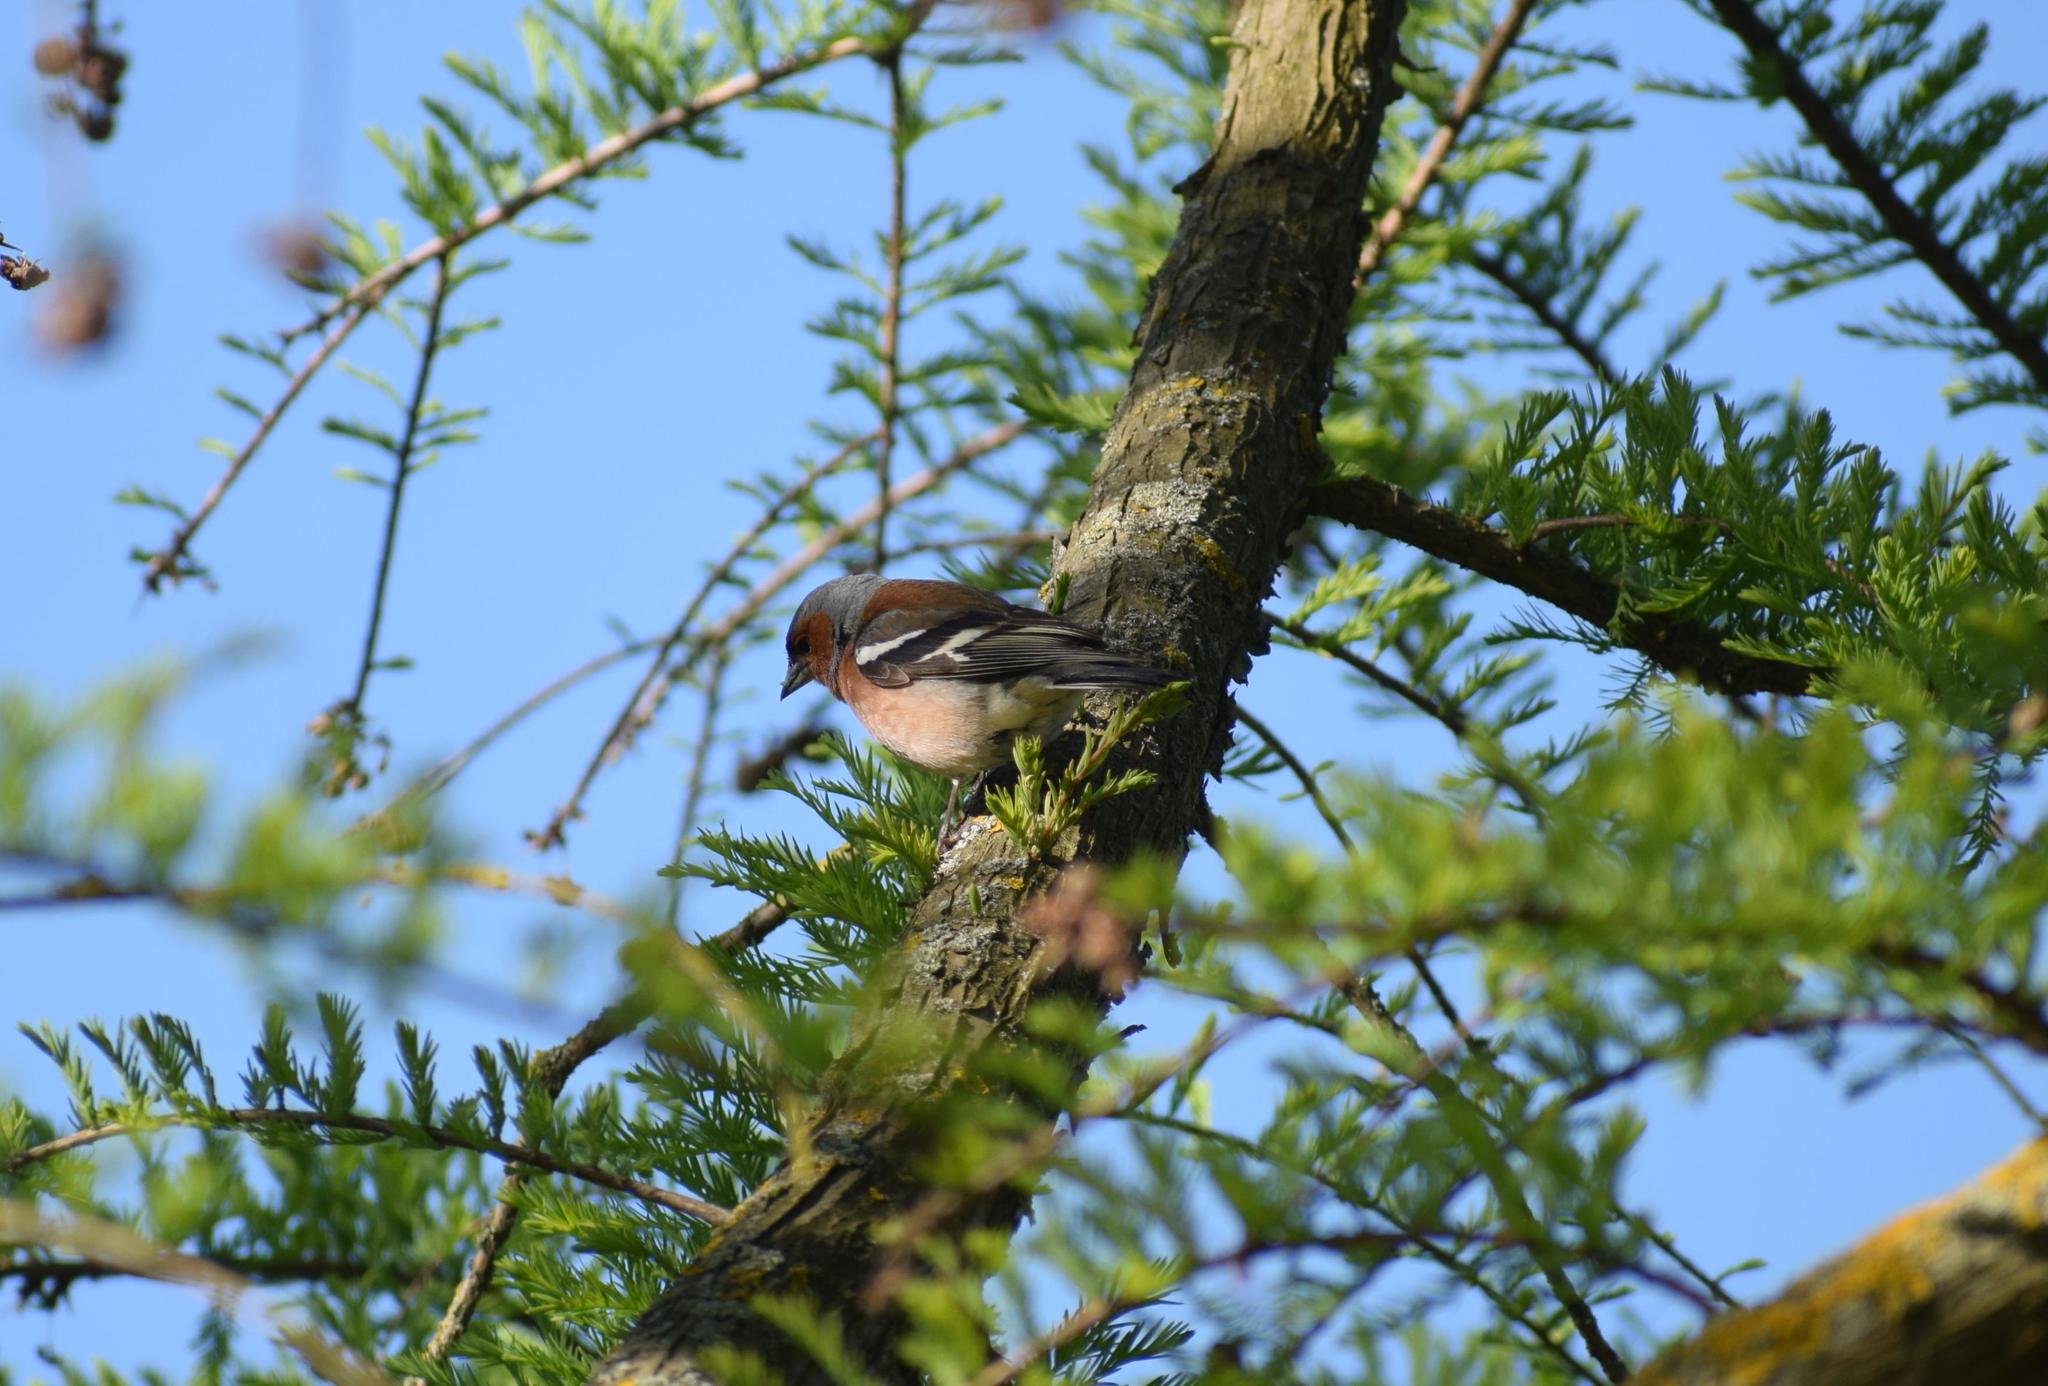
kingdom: Animalia
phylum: Chordata
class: Aves
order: Passeriformes
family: Fringillidae
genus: Fringilla
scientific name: Fringilla coelebs
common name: Common chaffinch
